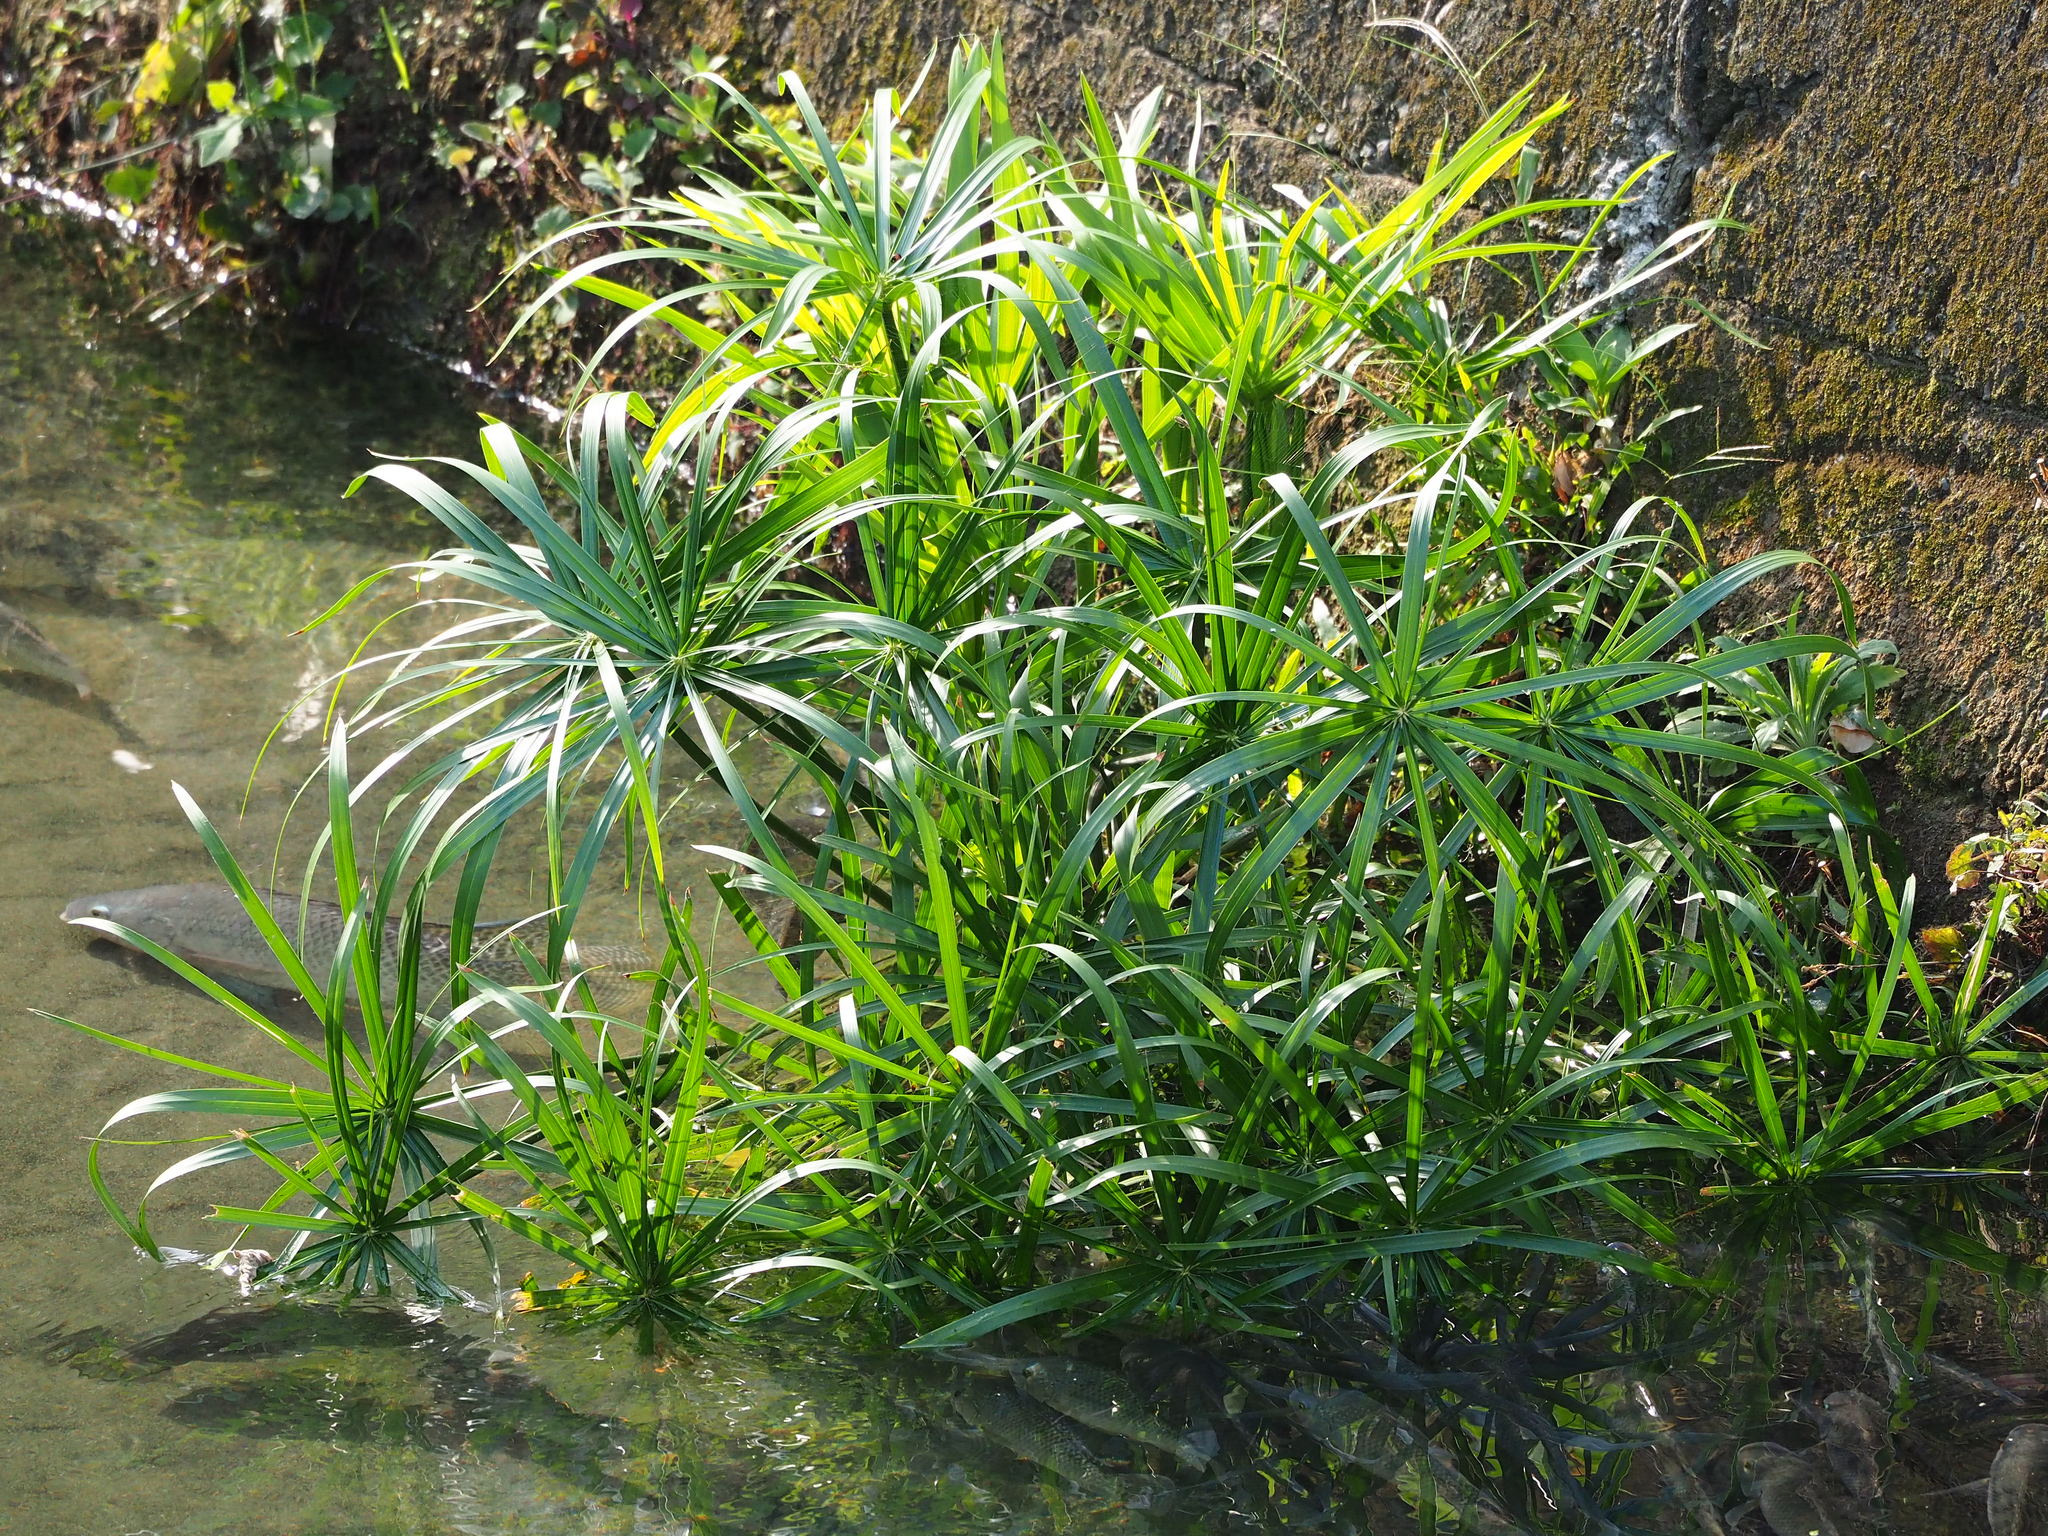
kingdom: Plantae
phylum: Tracheophyta
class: Liliopsida
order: Poales
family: Cyperaceae
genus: Cyperus
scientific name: Cyperus alternifolius
